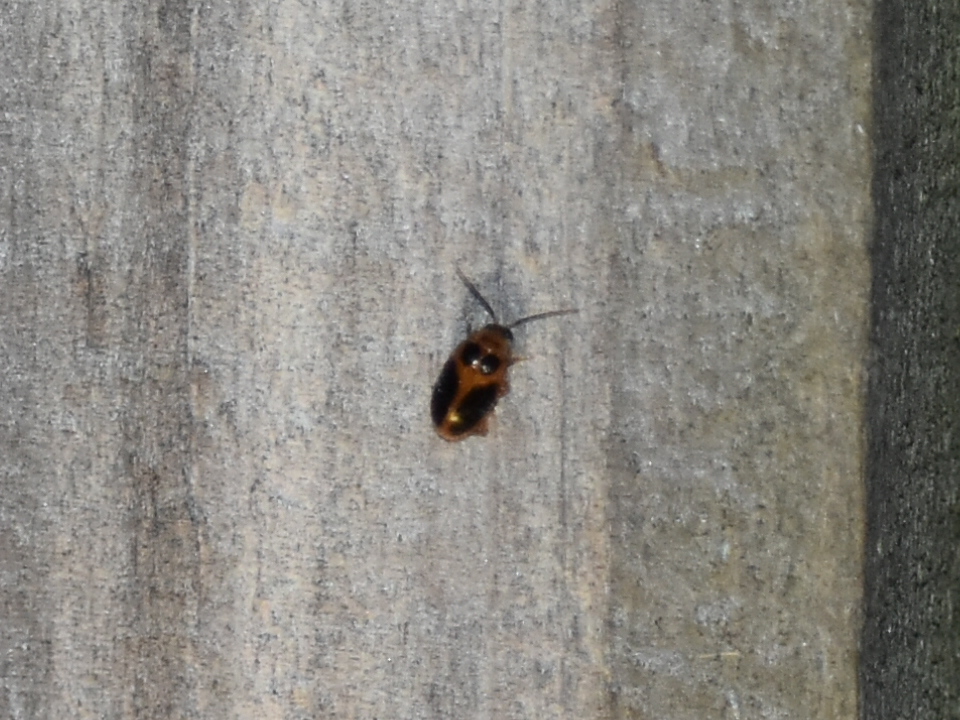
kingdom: Animalia
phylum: Arthropoda
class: Insecta
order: Coleoptera
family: Scirtidae
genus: Sacodes
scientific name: Sacodes pulchella
